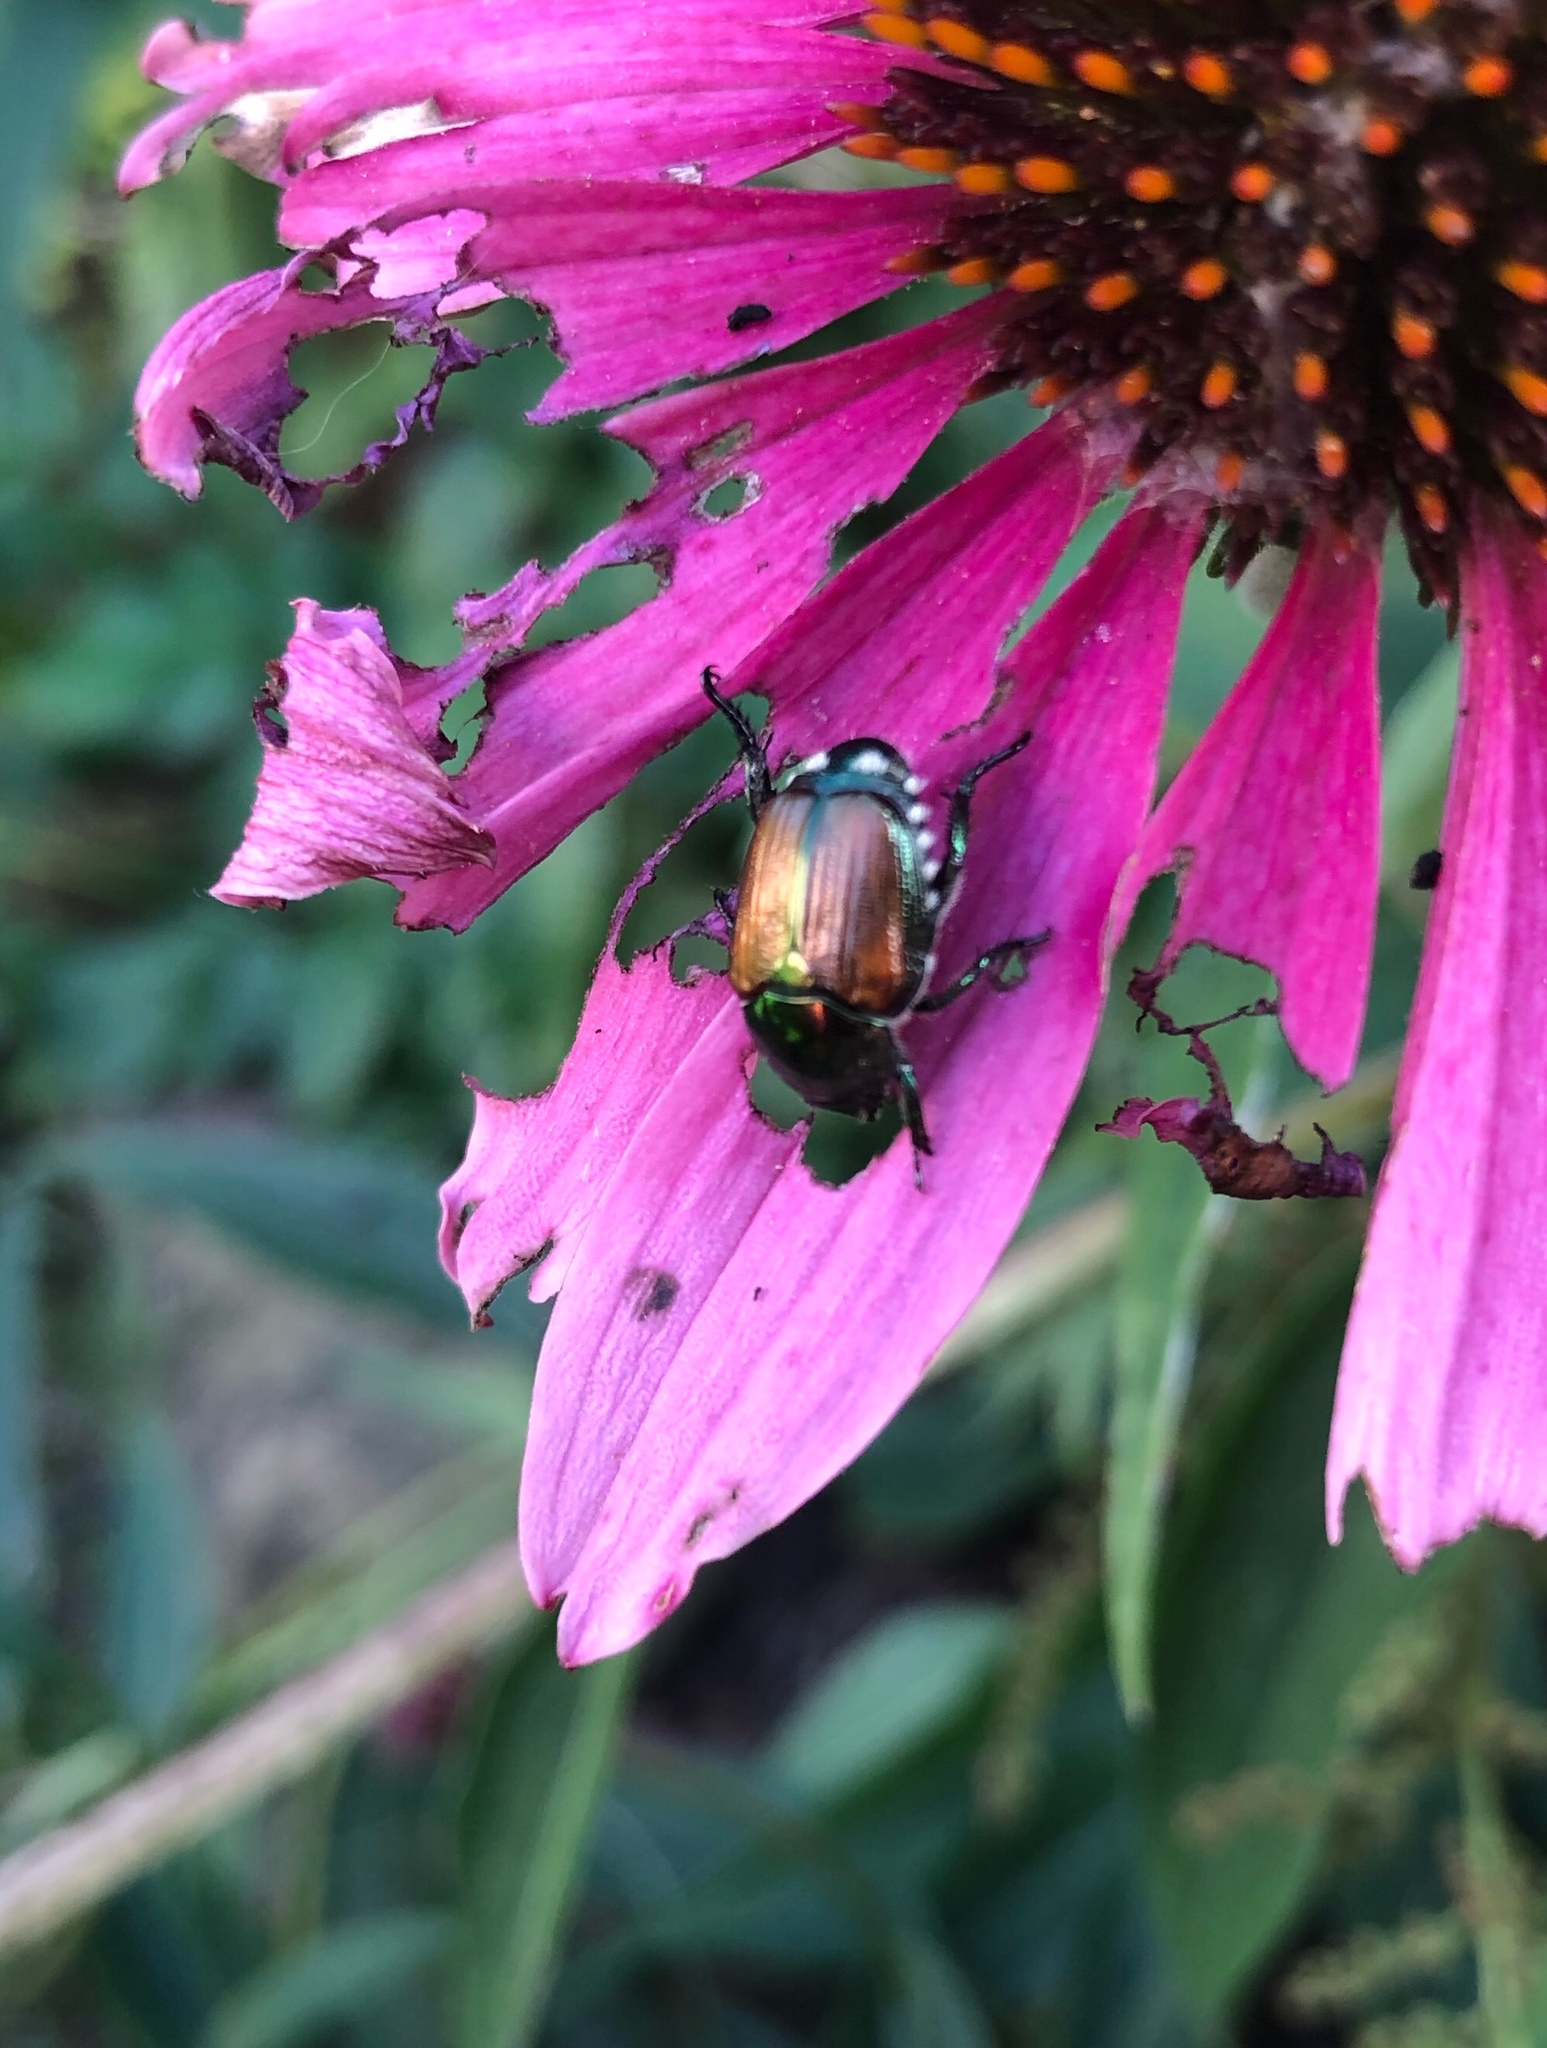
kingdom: Animalia
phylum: Arthropoda
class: Insecta
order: Coleoptera
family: Scarabaeidae
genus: Popillia
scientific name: Popillia japonica
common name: Japanese beetle
